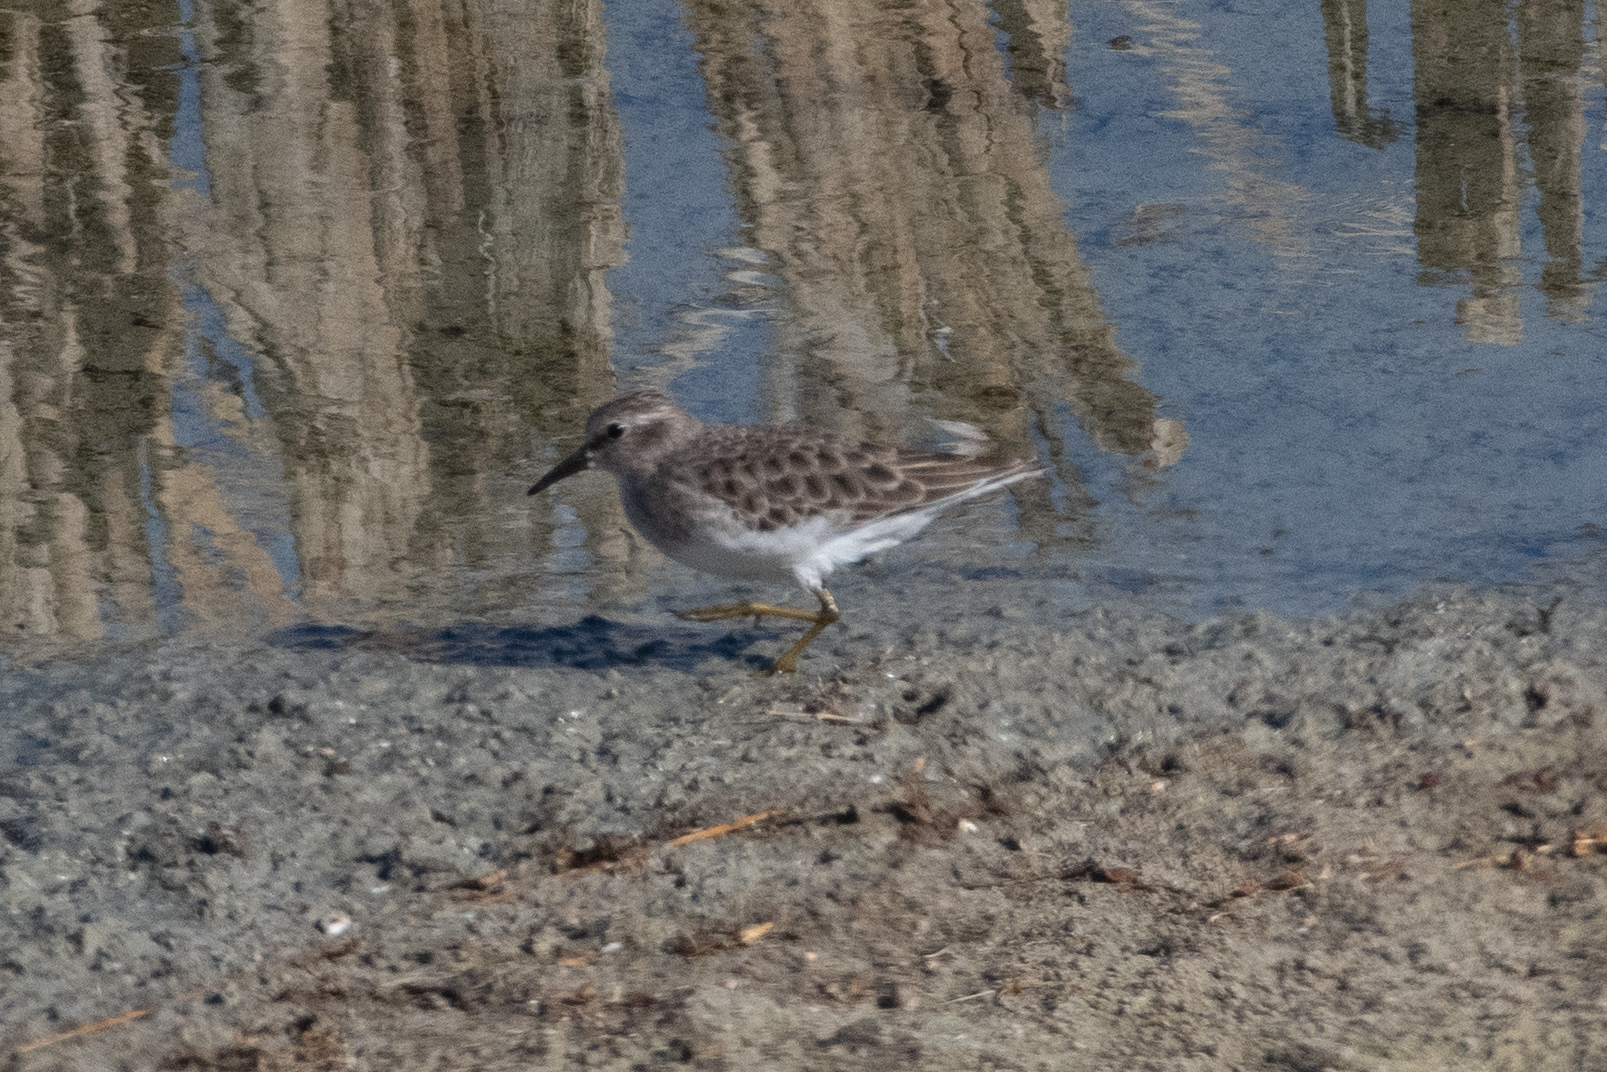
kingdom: Animalia
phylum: Chordata
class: Aves
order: Charadriiformes
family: Scolopacidae
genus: Calidris
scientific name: Calidris minutilla
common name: Least sandpiper
